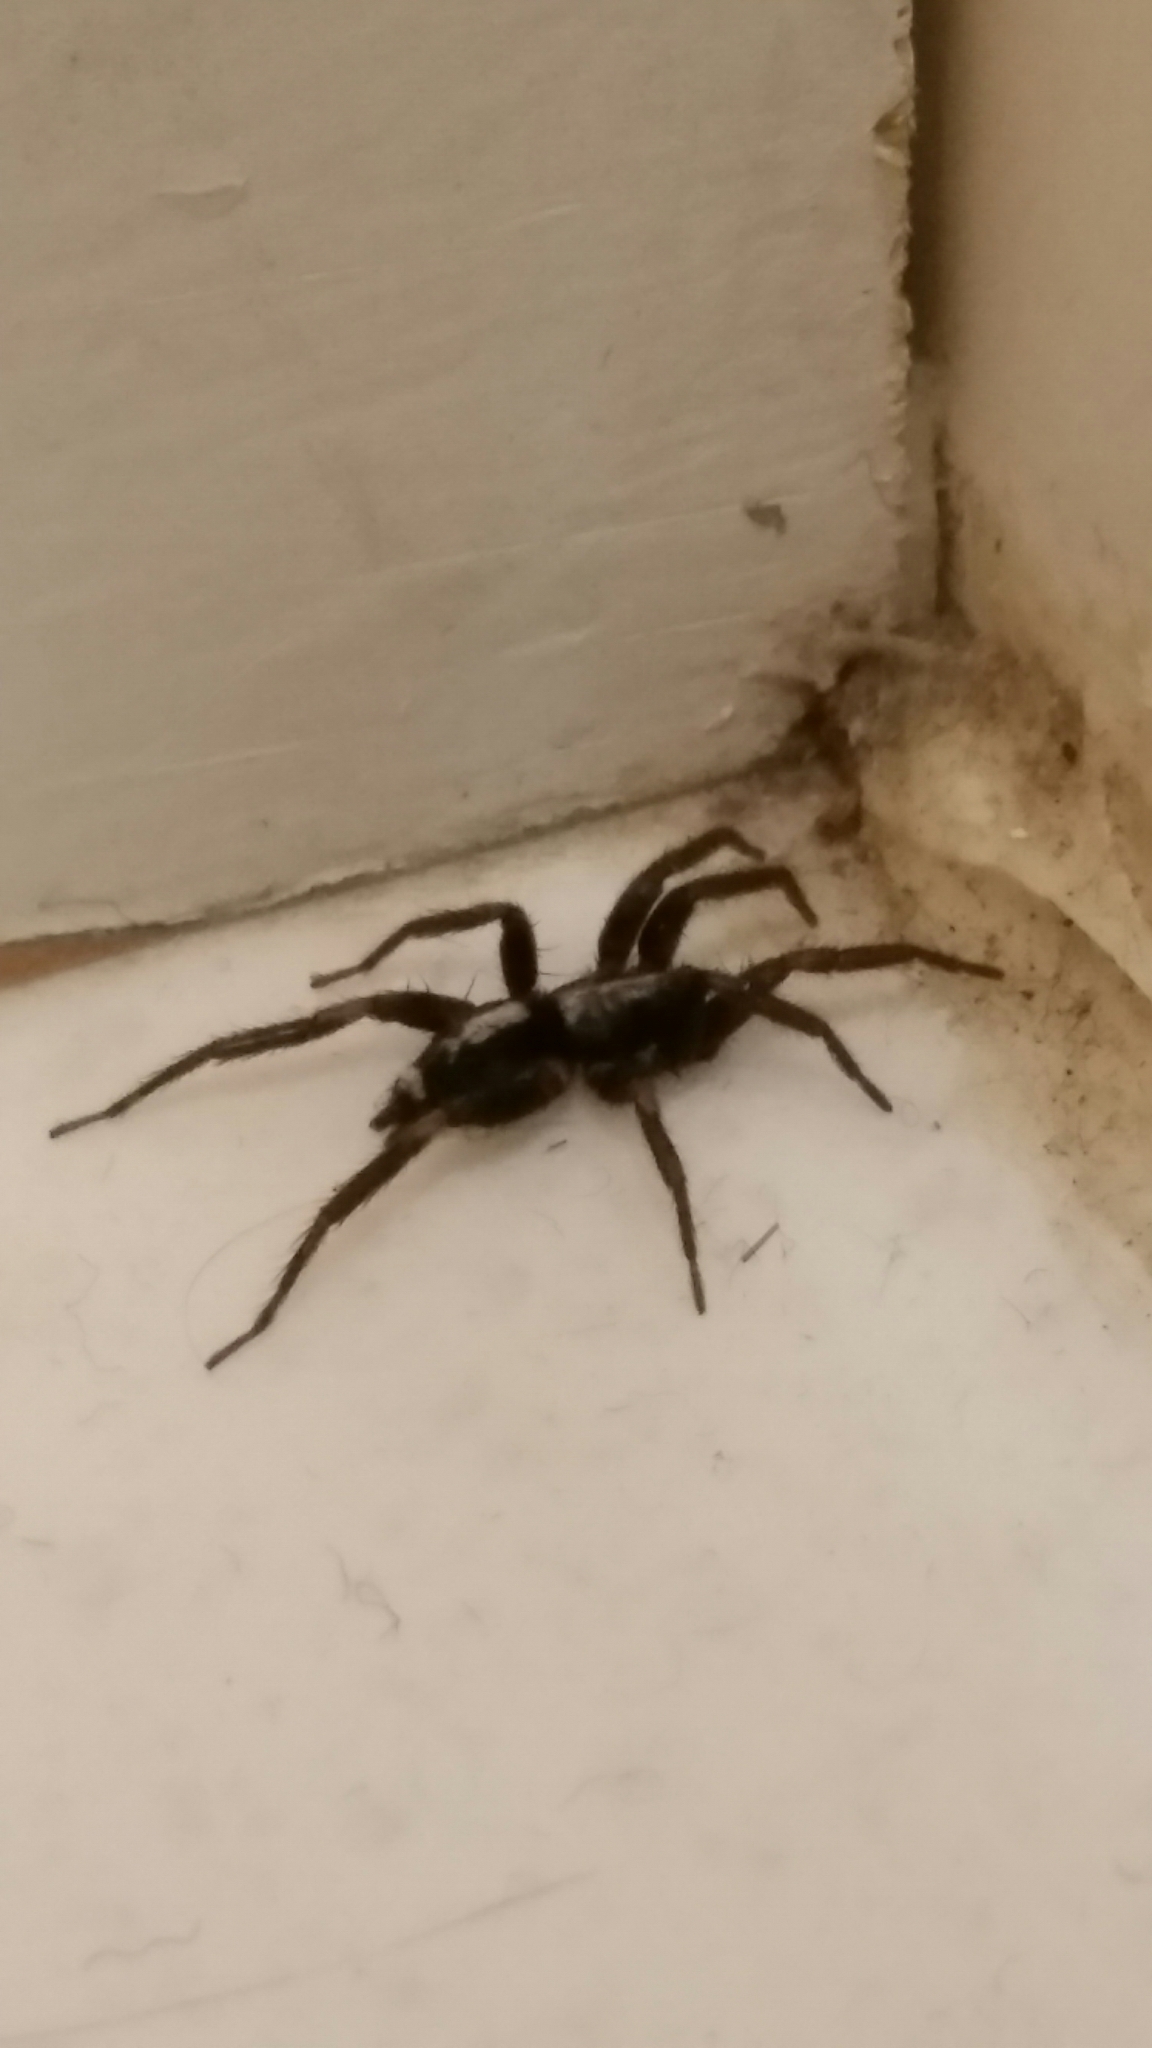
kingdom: Animalia
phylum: Arthropoda
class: Arachnida
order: Araneae
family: Gnaphosidae
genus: Herpyllus
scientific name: Herpyllus ecclesiasticus
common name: Eastern parson spider
